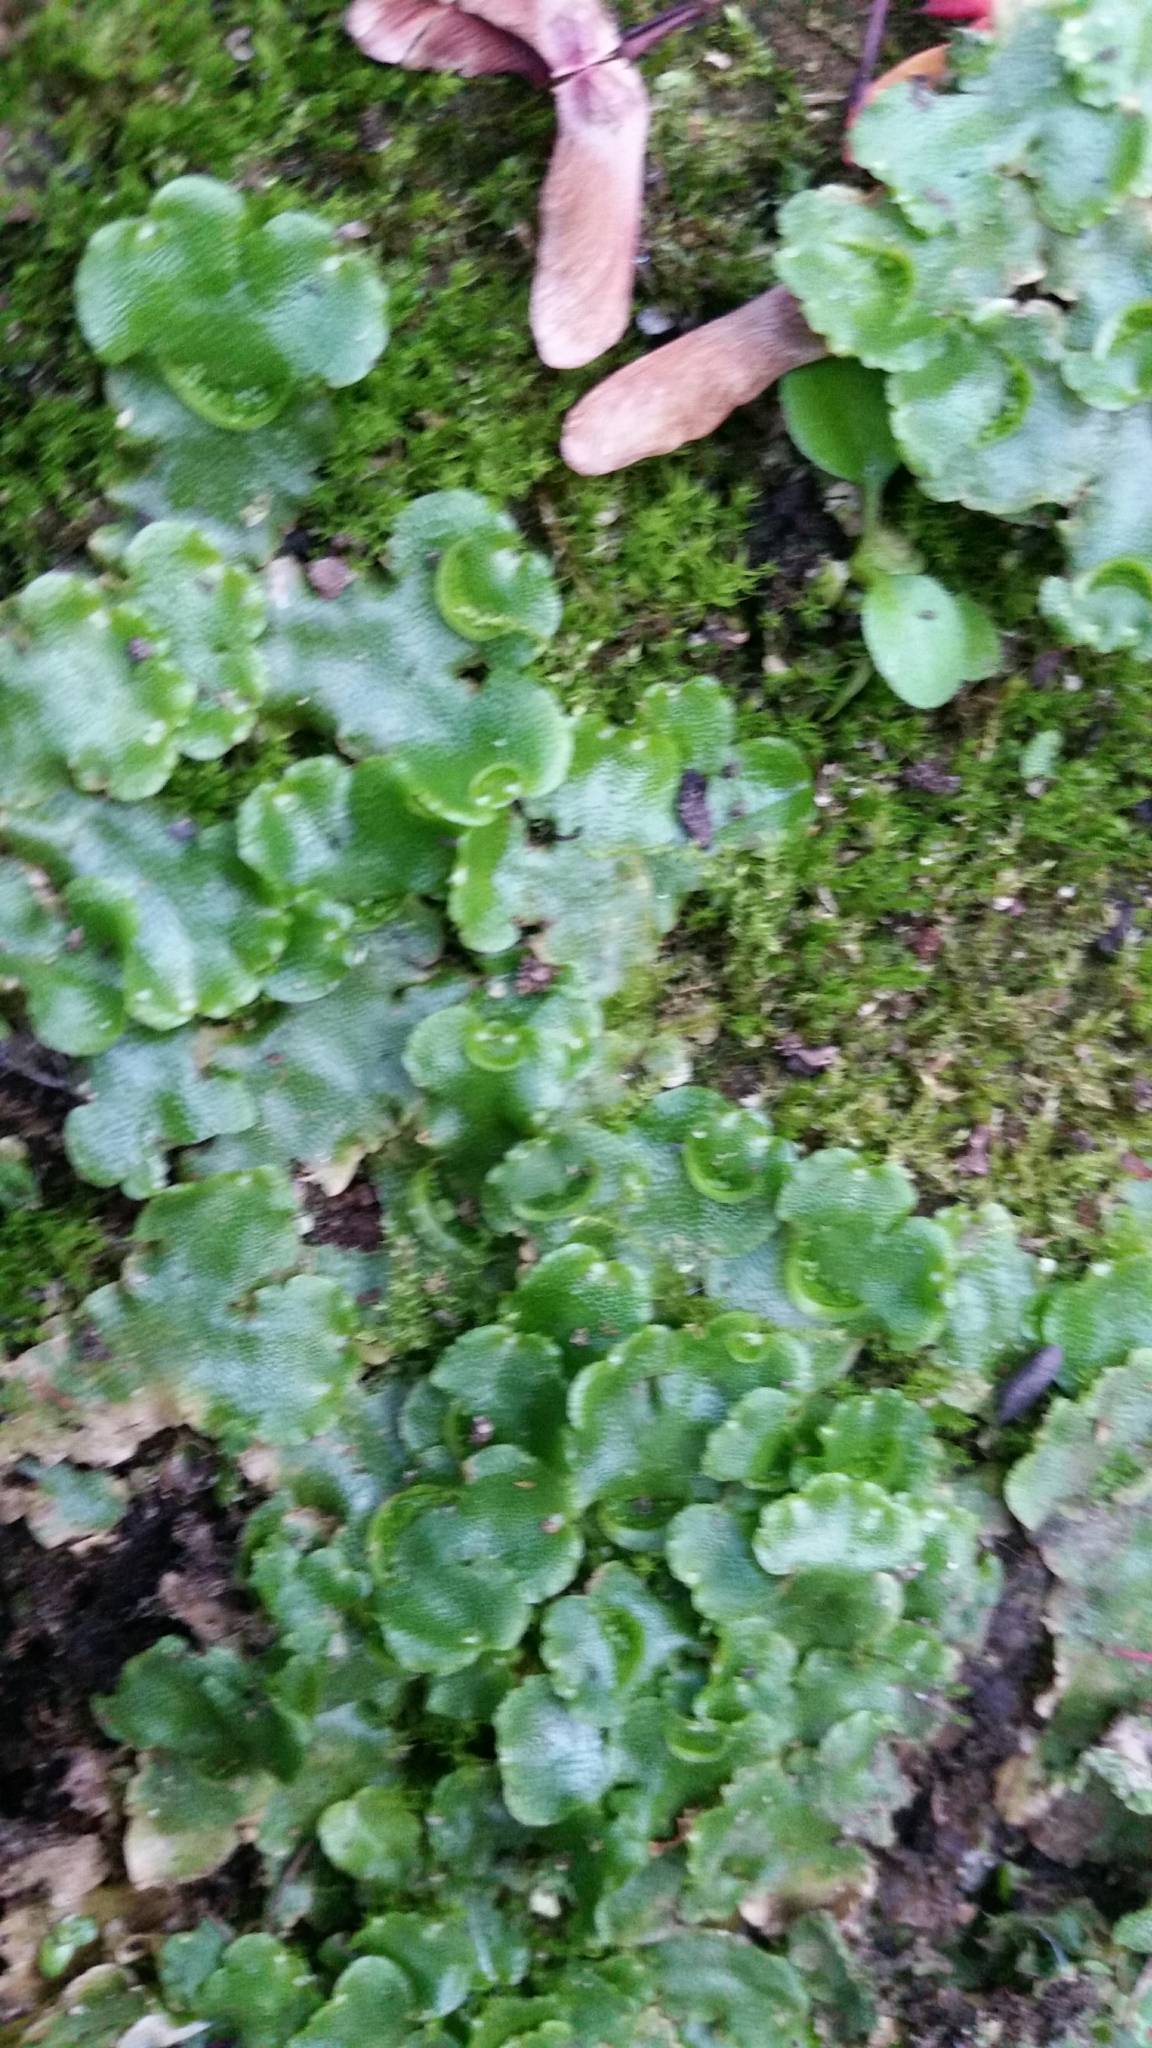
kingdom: Plantae
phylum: Marchantiophyta
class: Marchantiopsida
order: Lunulariales
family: Lunulariaceae
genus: Lunularia
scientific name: Lunularia cruciata
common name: Crescent-cup liverwort
